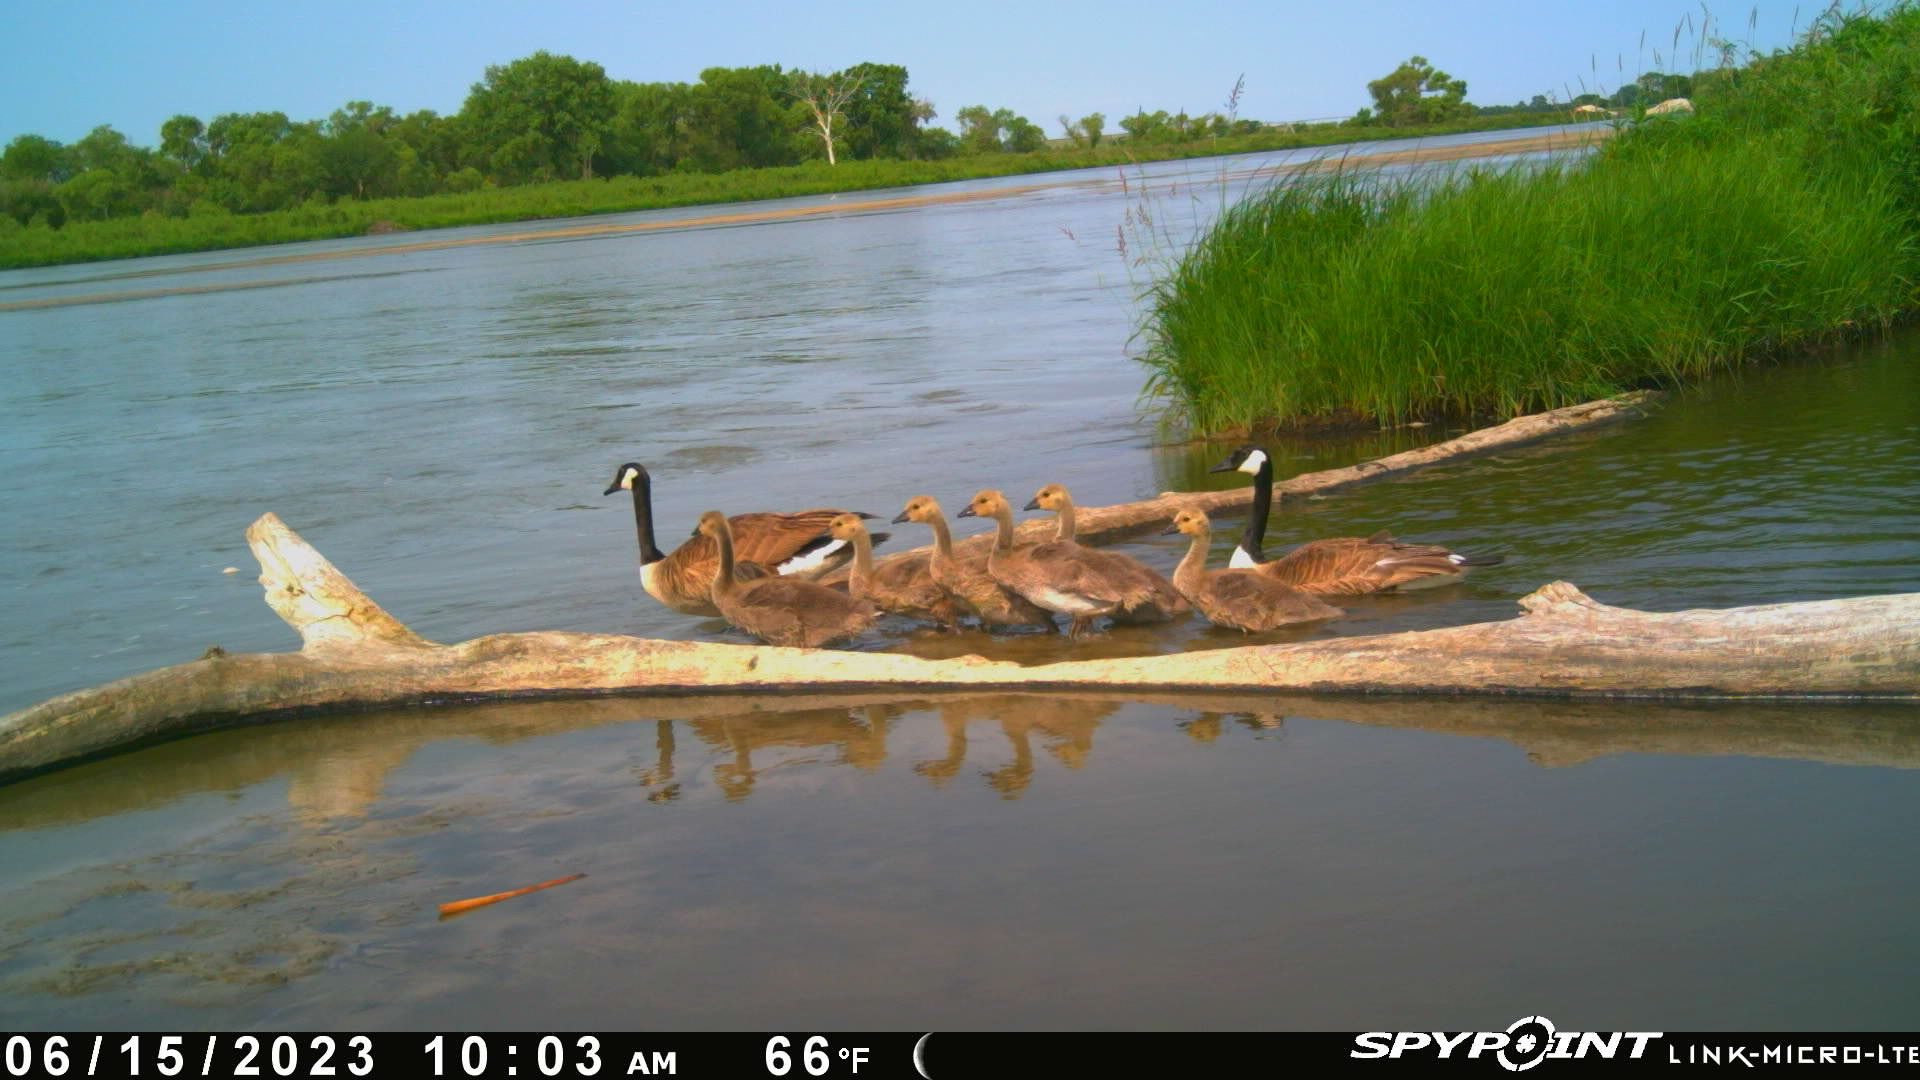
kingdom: Animalia
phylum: Chordata
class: Aves
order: Anseriformes
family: Anatidae
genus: Branta
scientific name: Branta canadensis
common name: Canada goose
